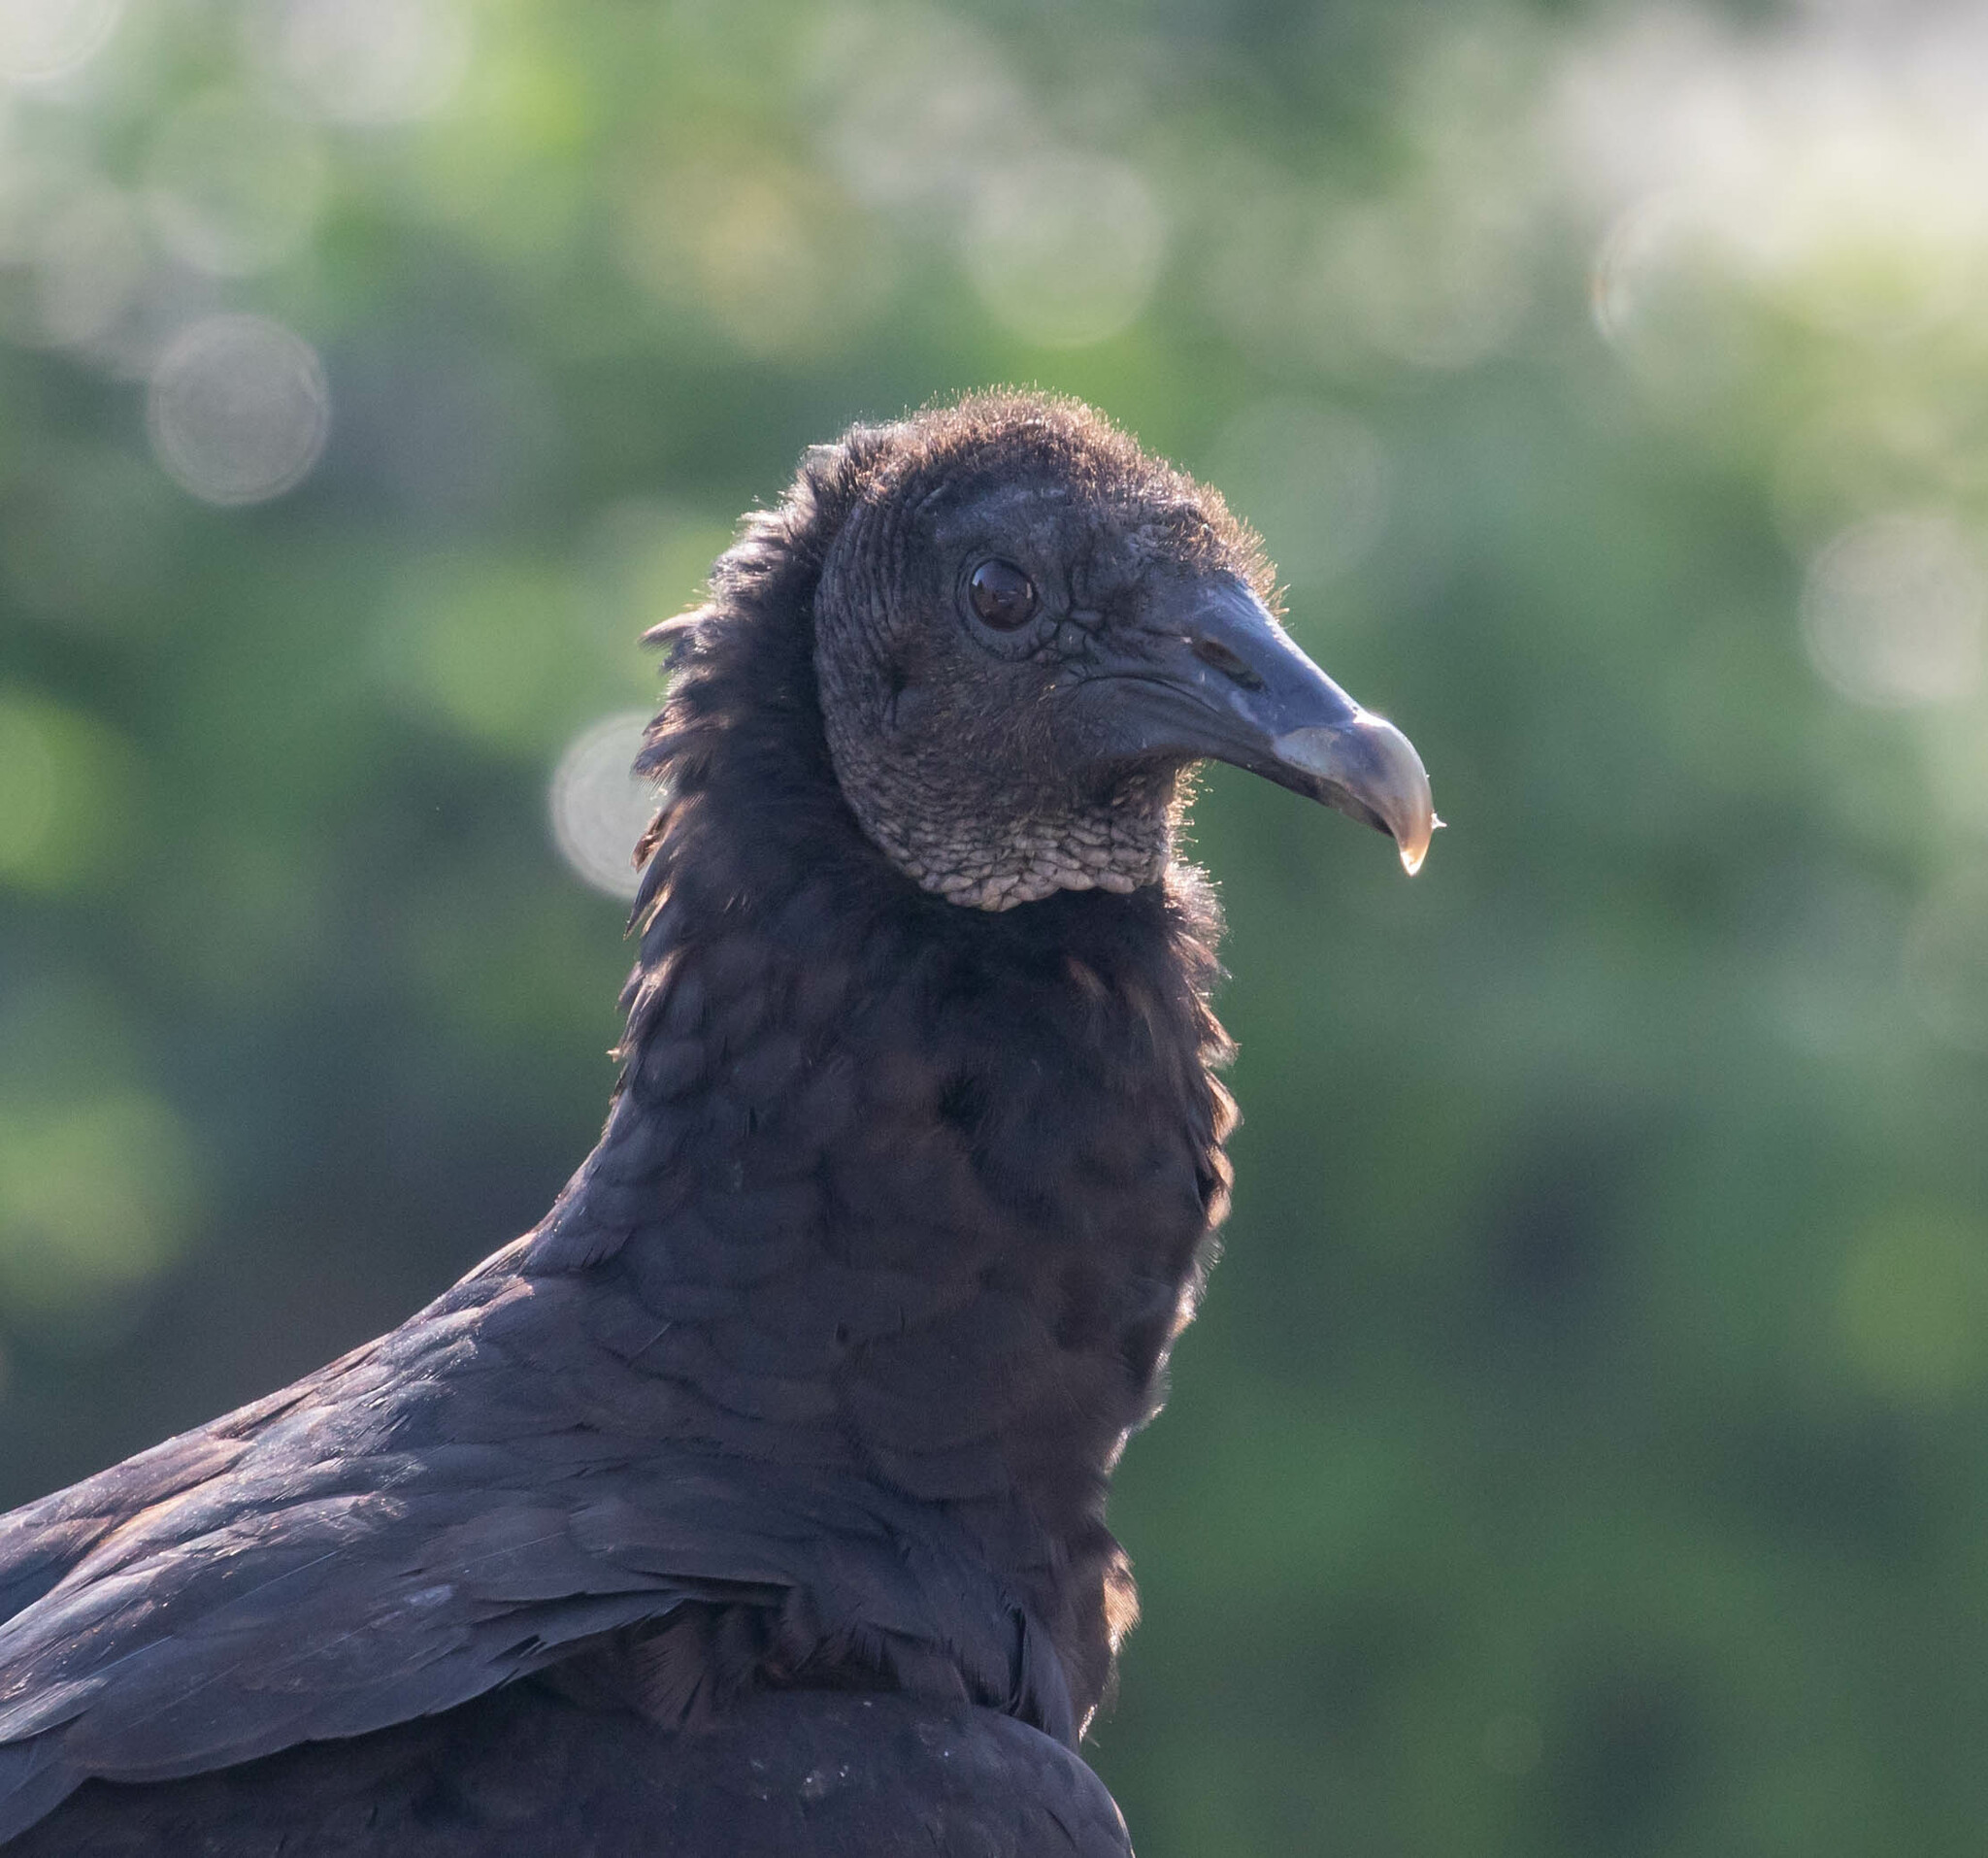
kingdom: Animalia
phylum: Chordata
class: Aves
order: Accipitriformes
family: Cathartidae
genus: Coragyps
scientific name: Coragyps atratus
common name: Black vulture
